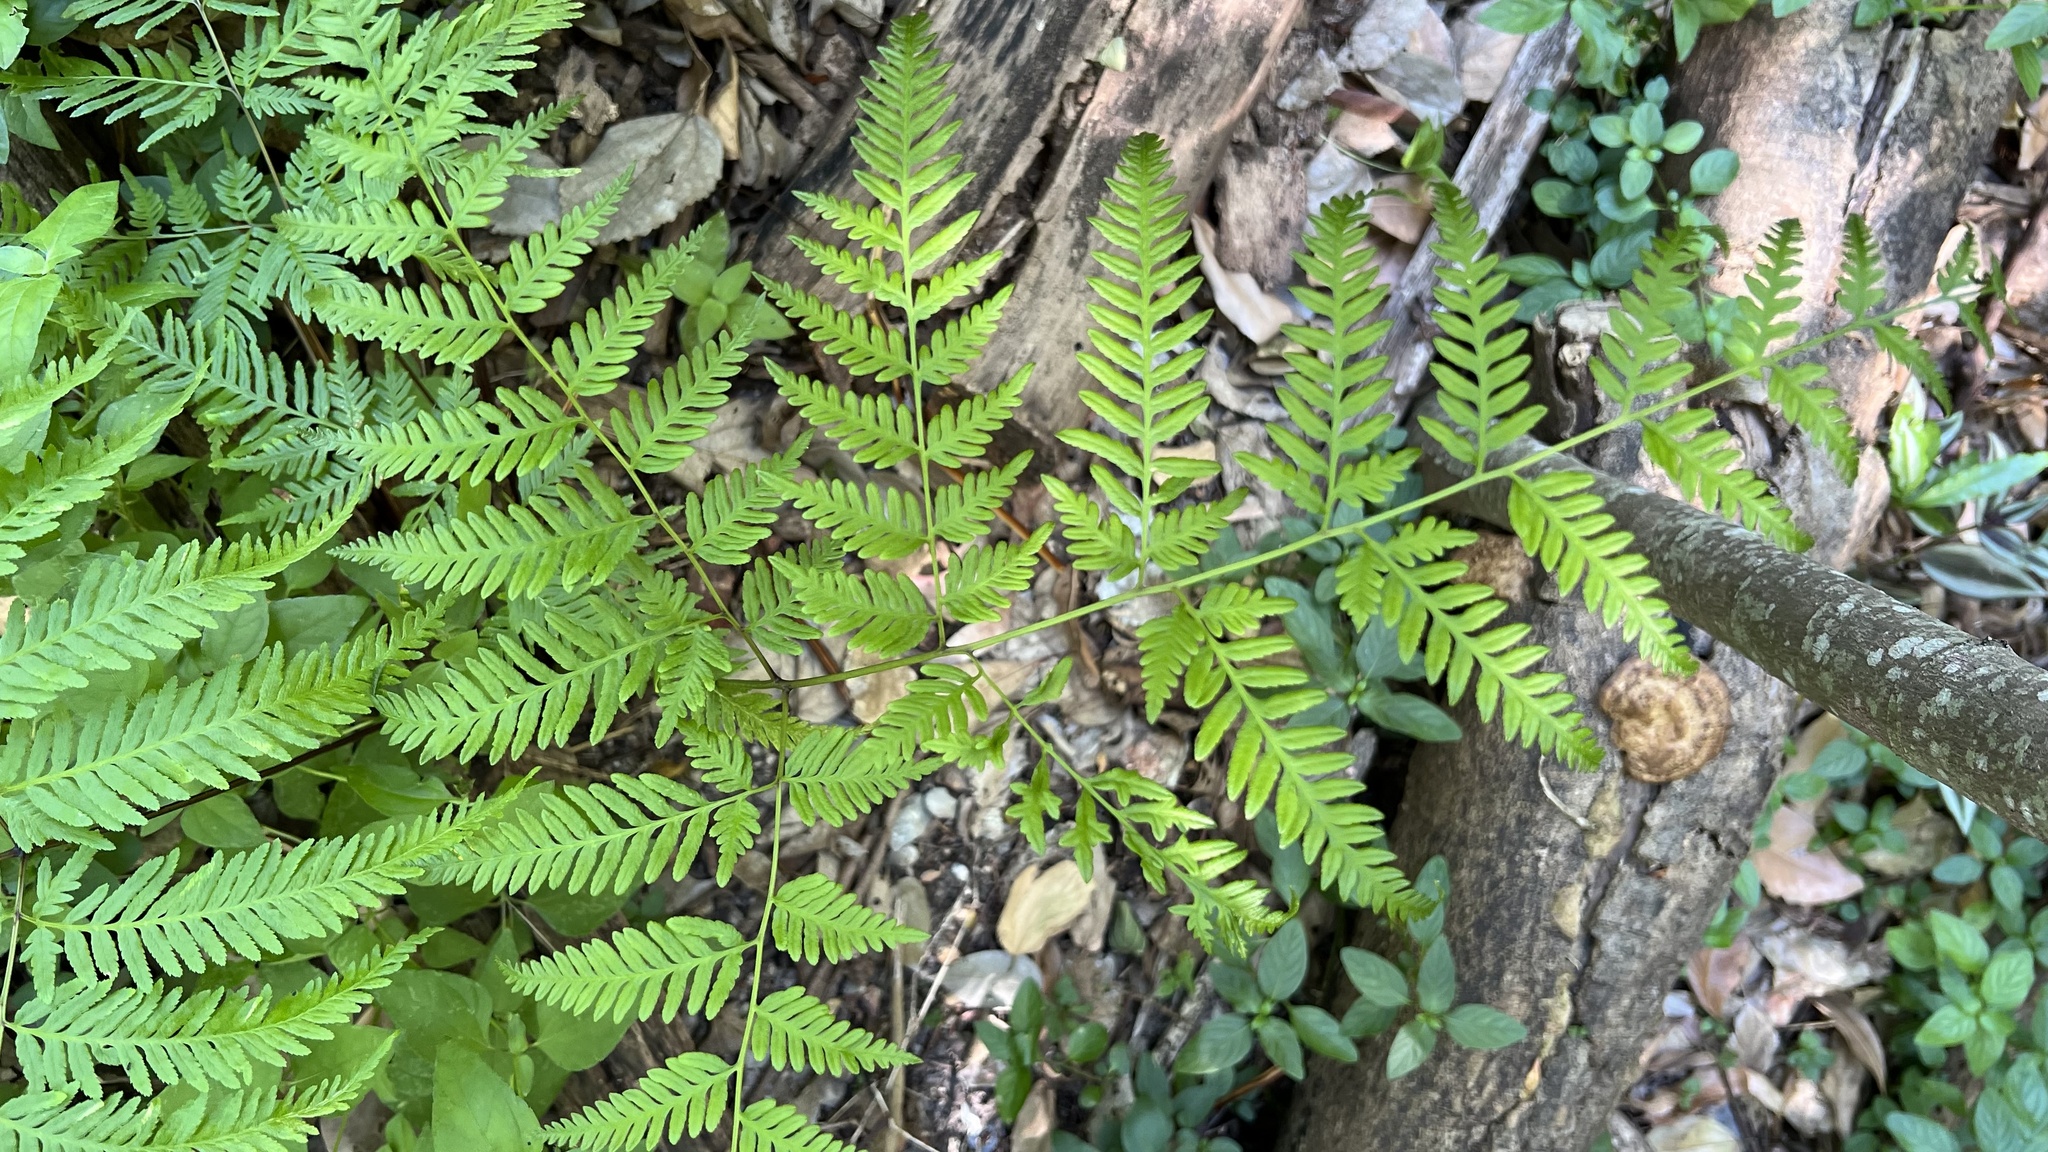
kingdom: Plantae
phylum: Tracheophyta
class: Polypodiopsida
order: Polypodiales
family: Pteridaceae
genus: Pteris
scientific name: Pteris tremula
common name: Australian brake
